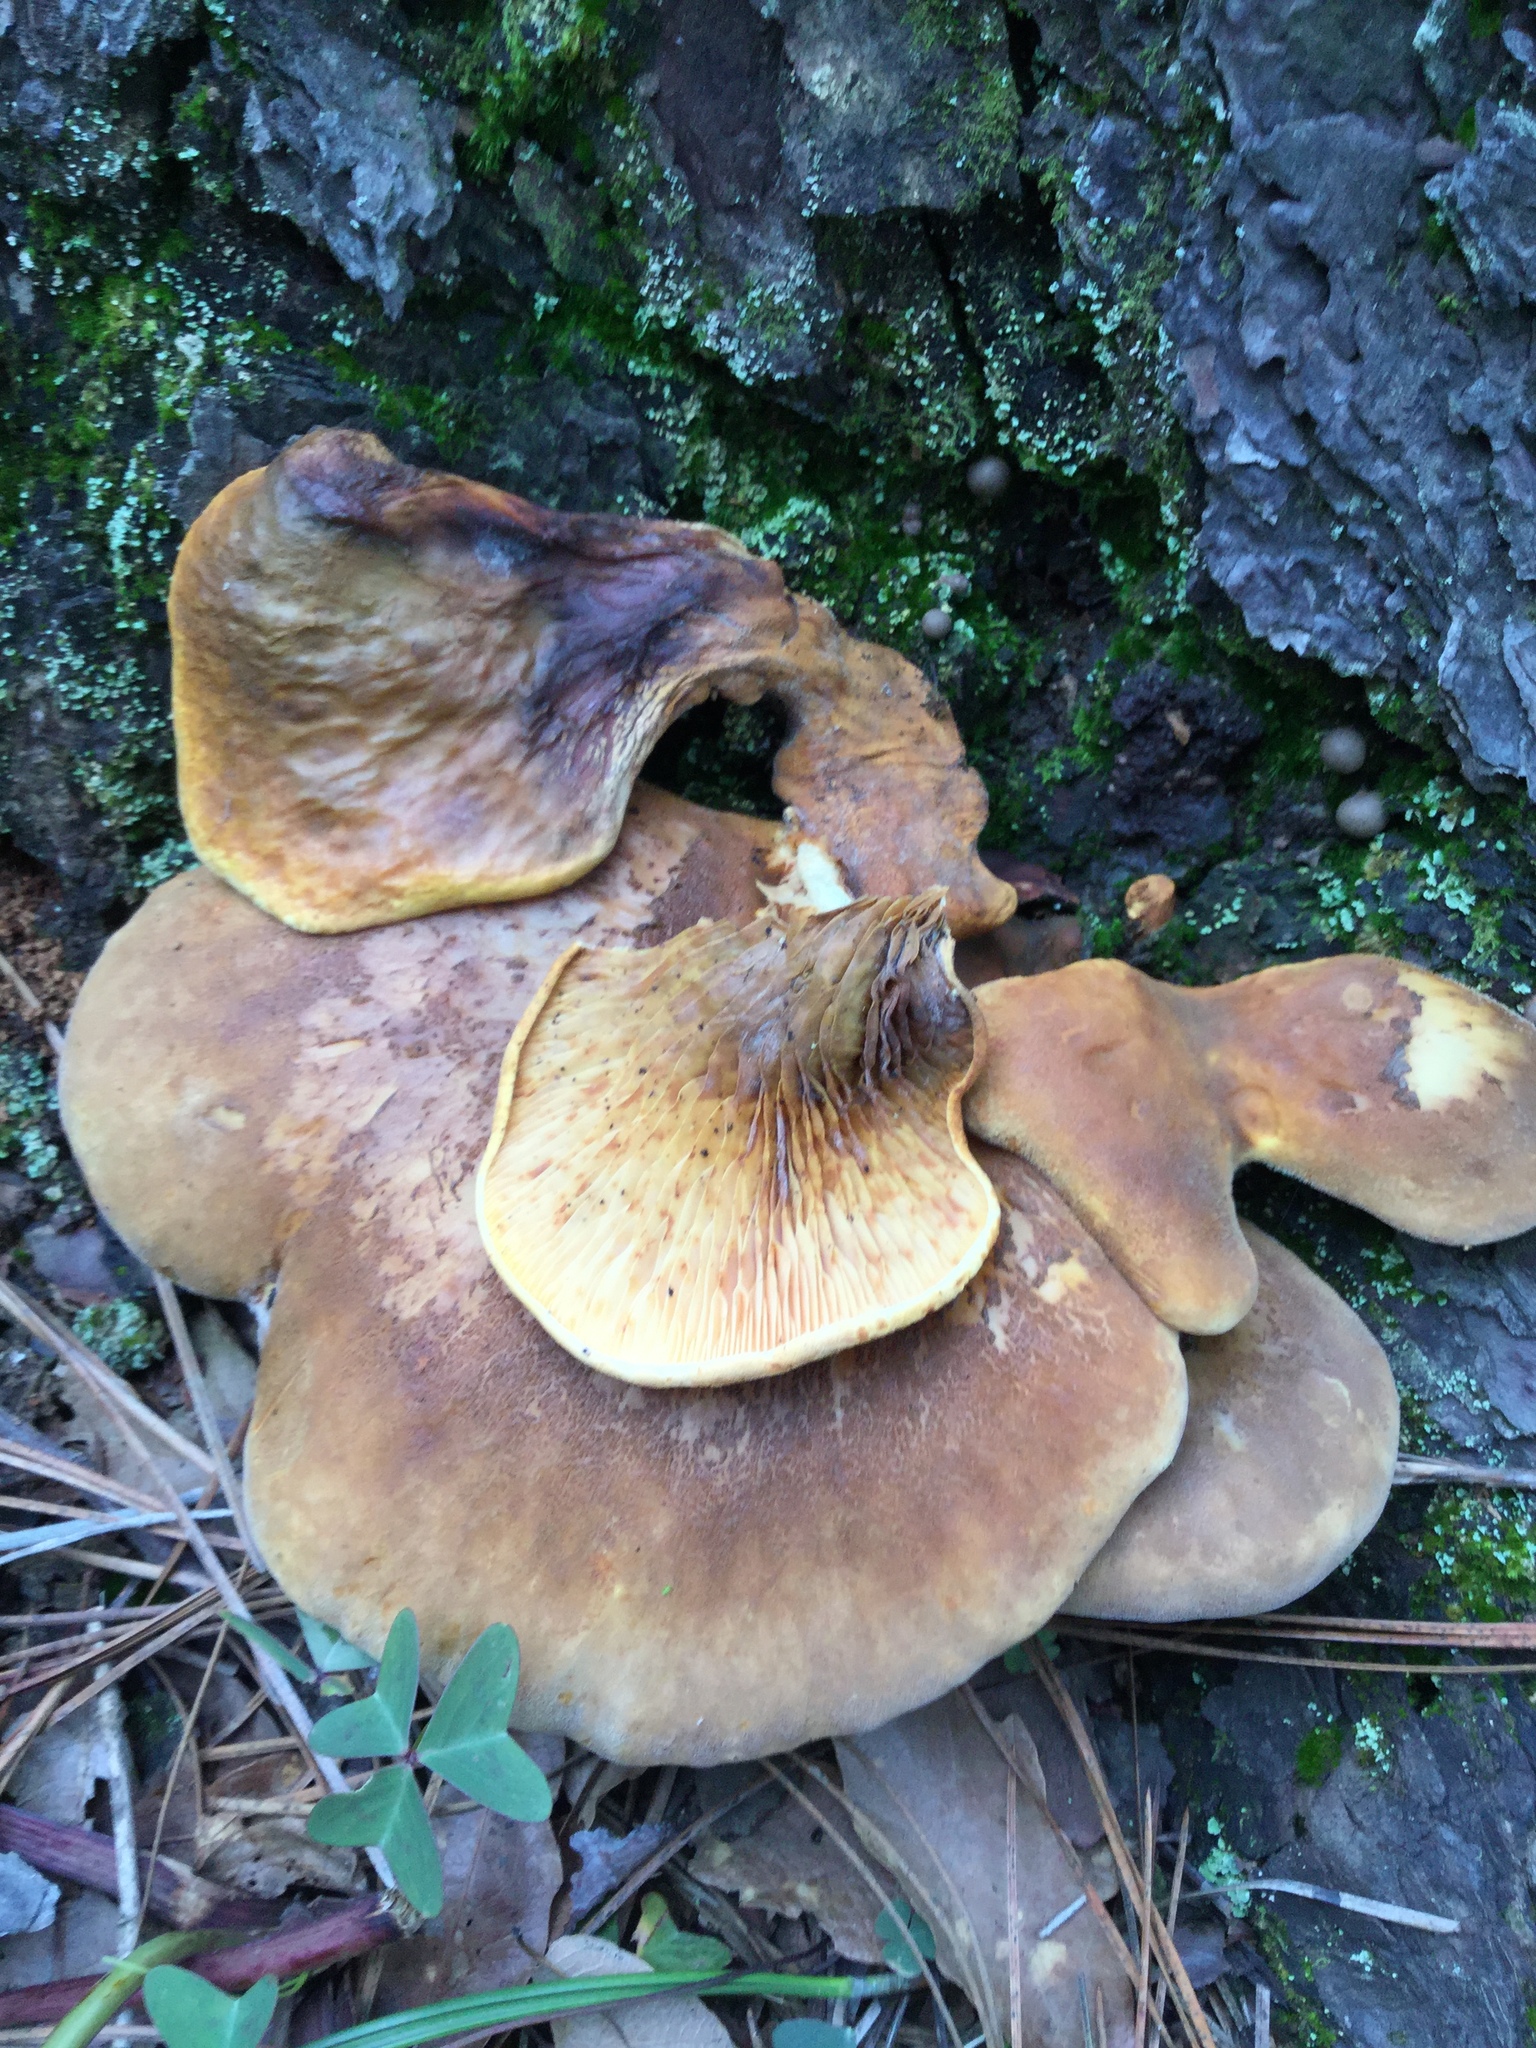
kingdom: Fungi
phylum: Basidiomycota
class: Agaricomycetes
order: Boletales
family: Tapinellaceae
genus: Tapinella
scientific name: Tapinella atrotomentosa
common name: Velvet rollrim
